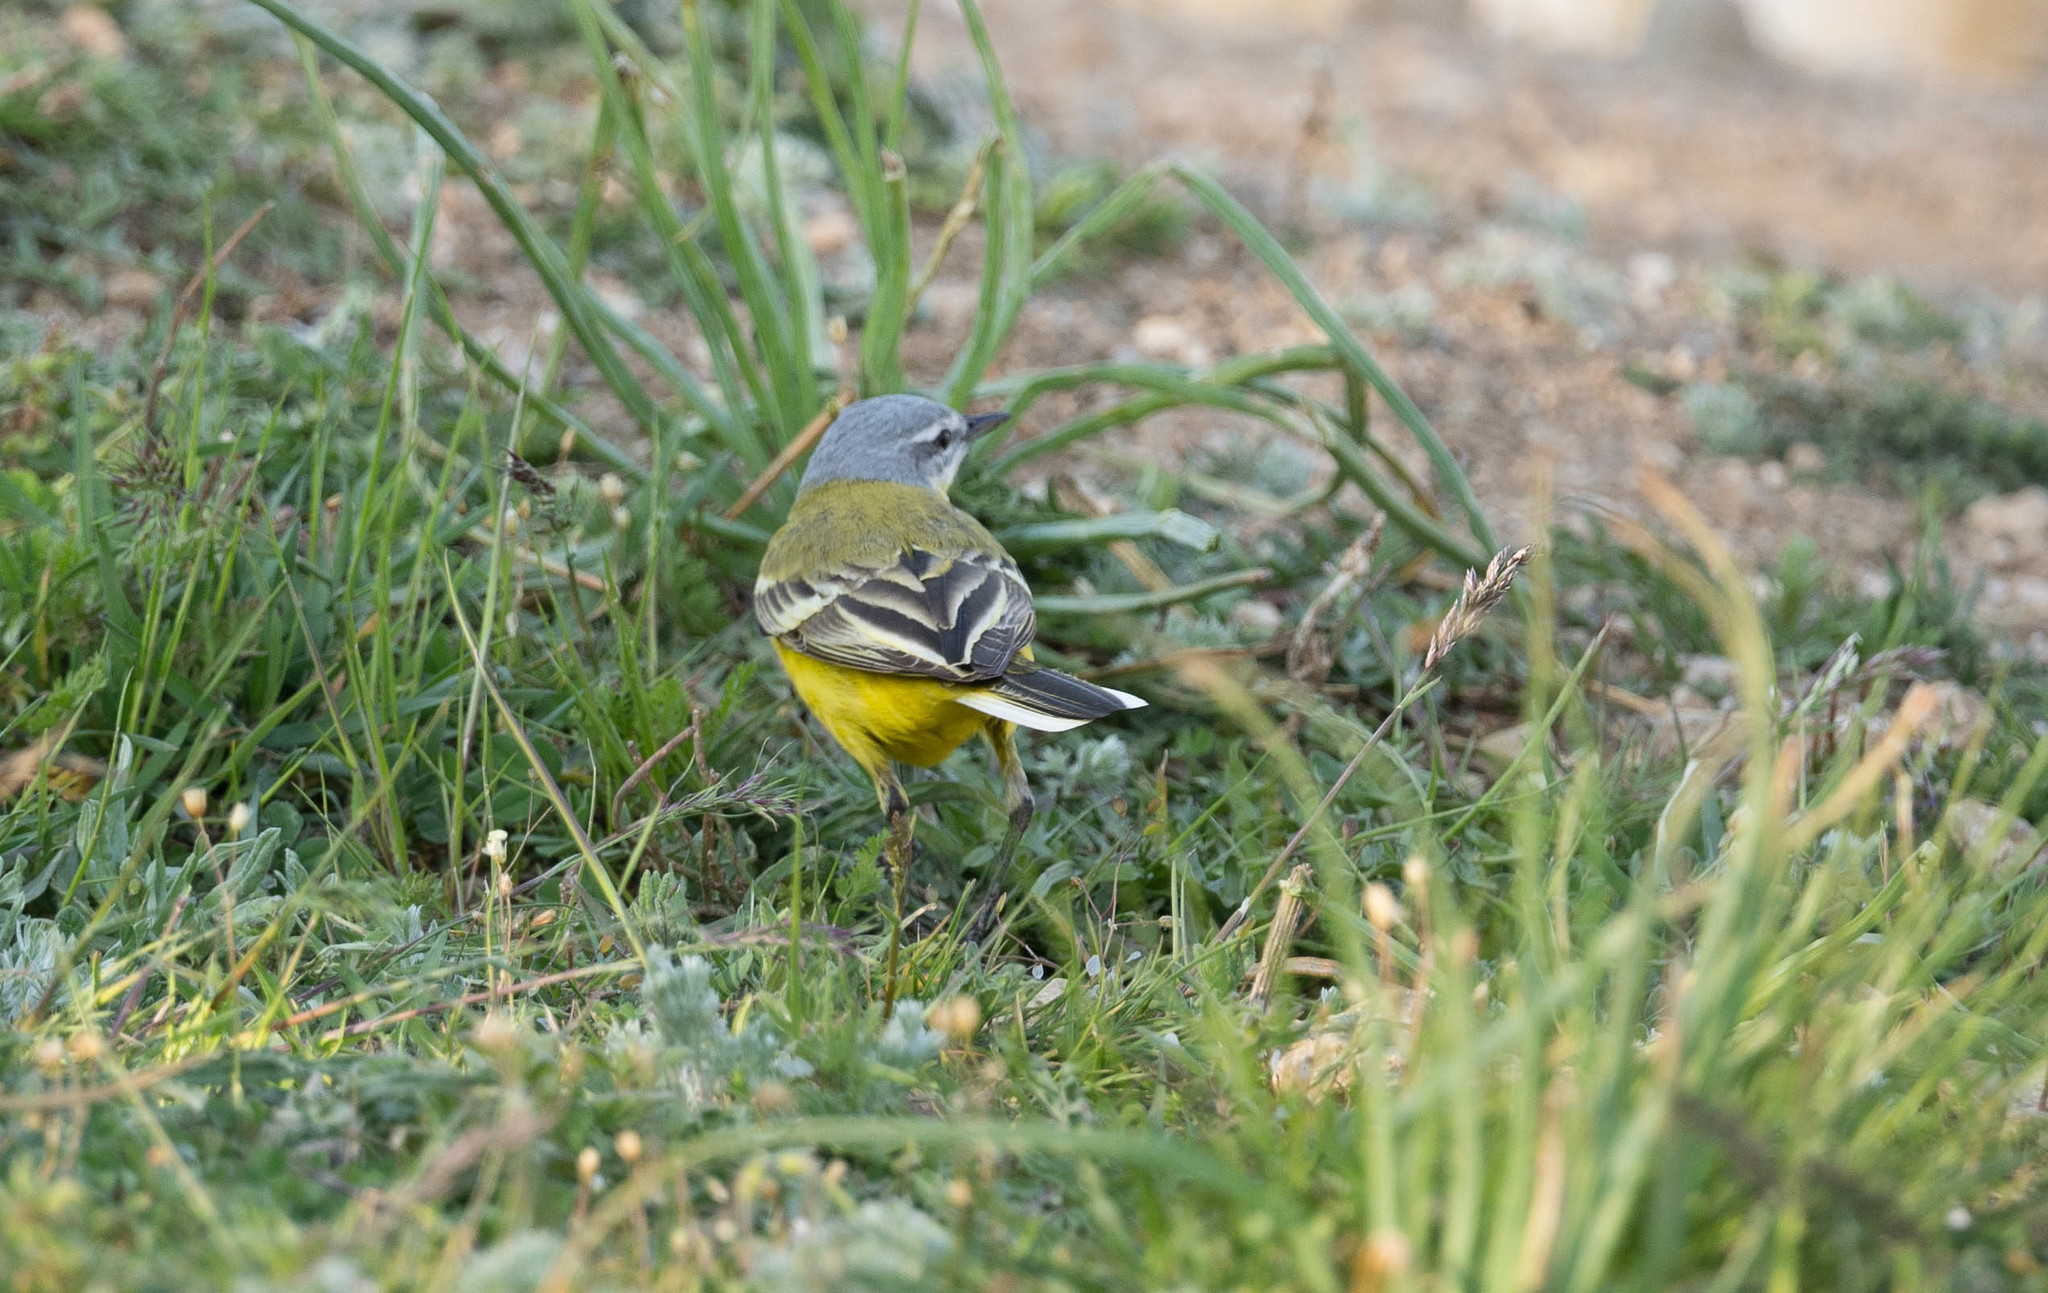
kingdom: Animalia
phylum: Chordata
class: Aves
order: Passeriformes
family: Motacillidae
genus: Motacilla
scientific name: Motacilla flava
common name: Western yellow wagtail
